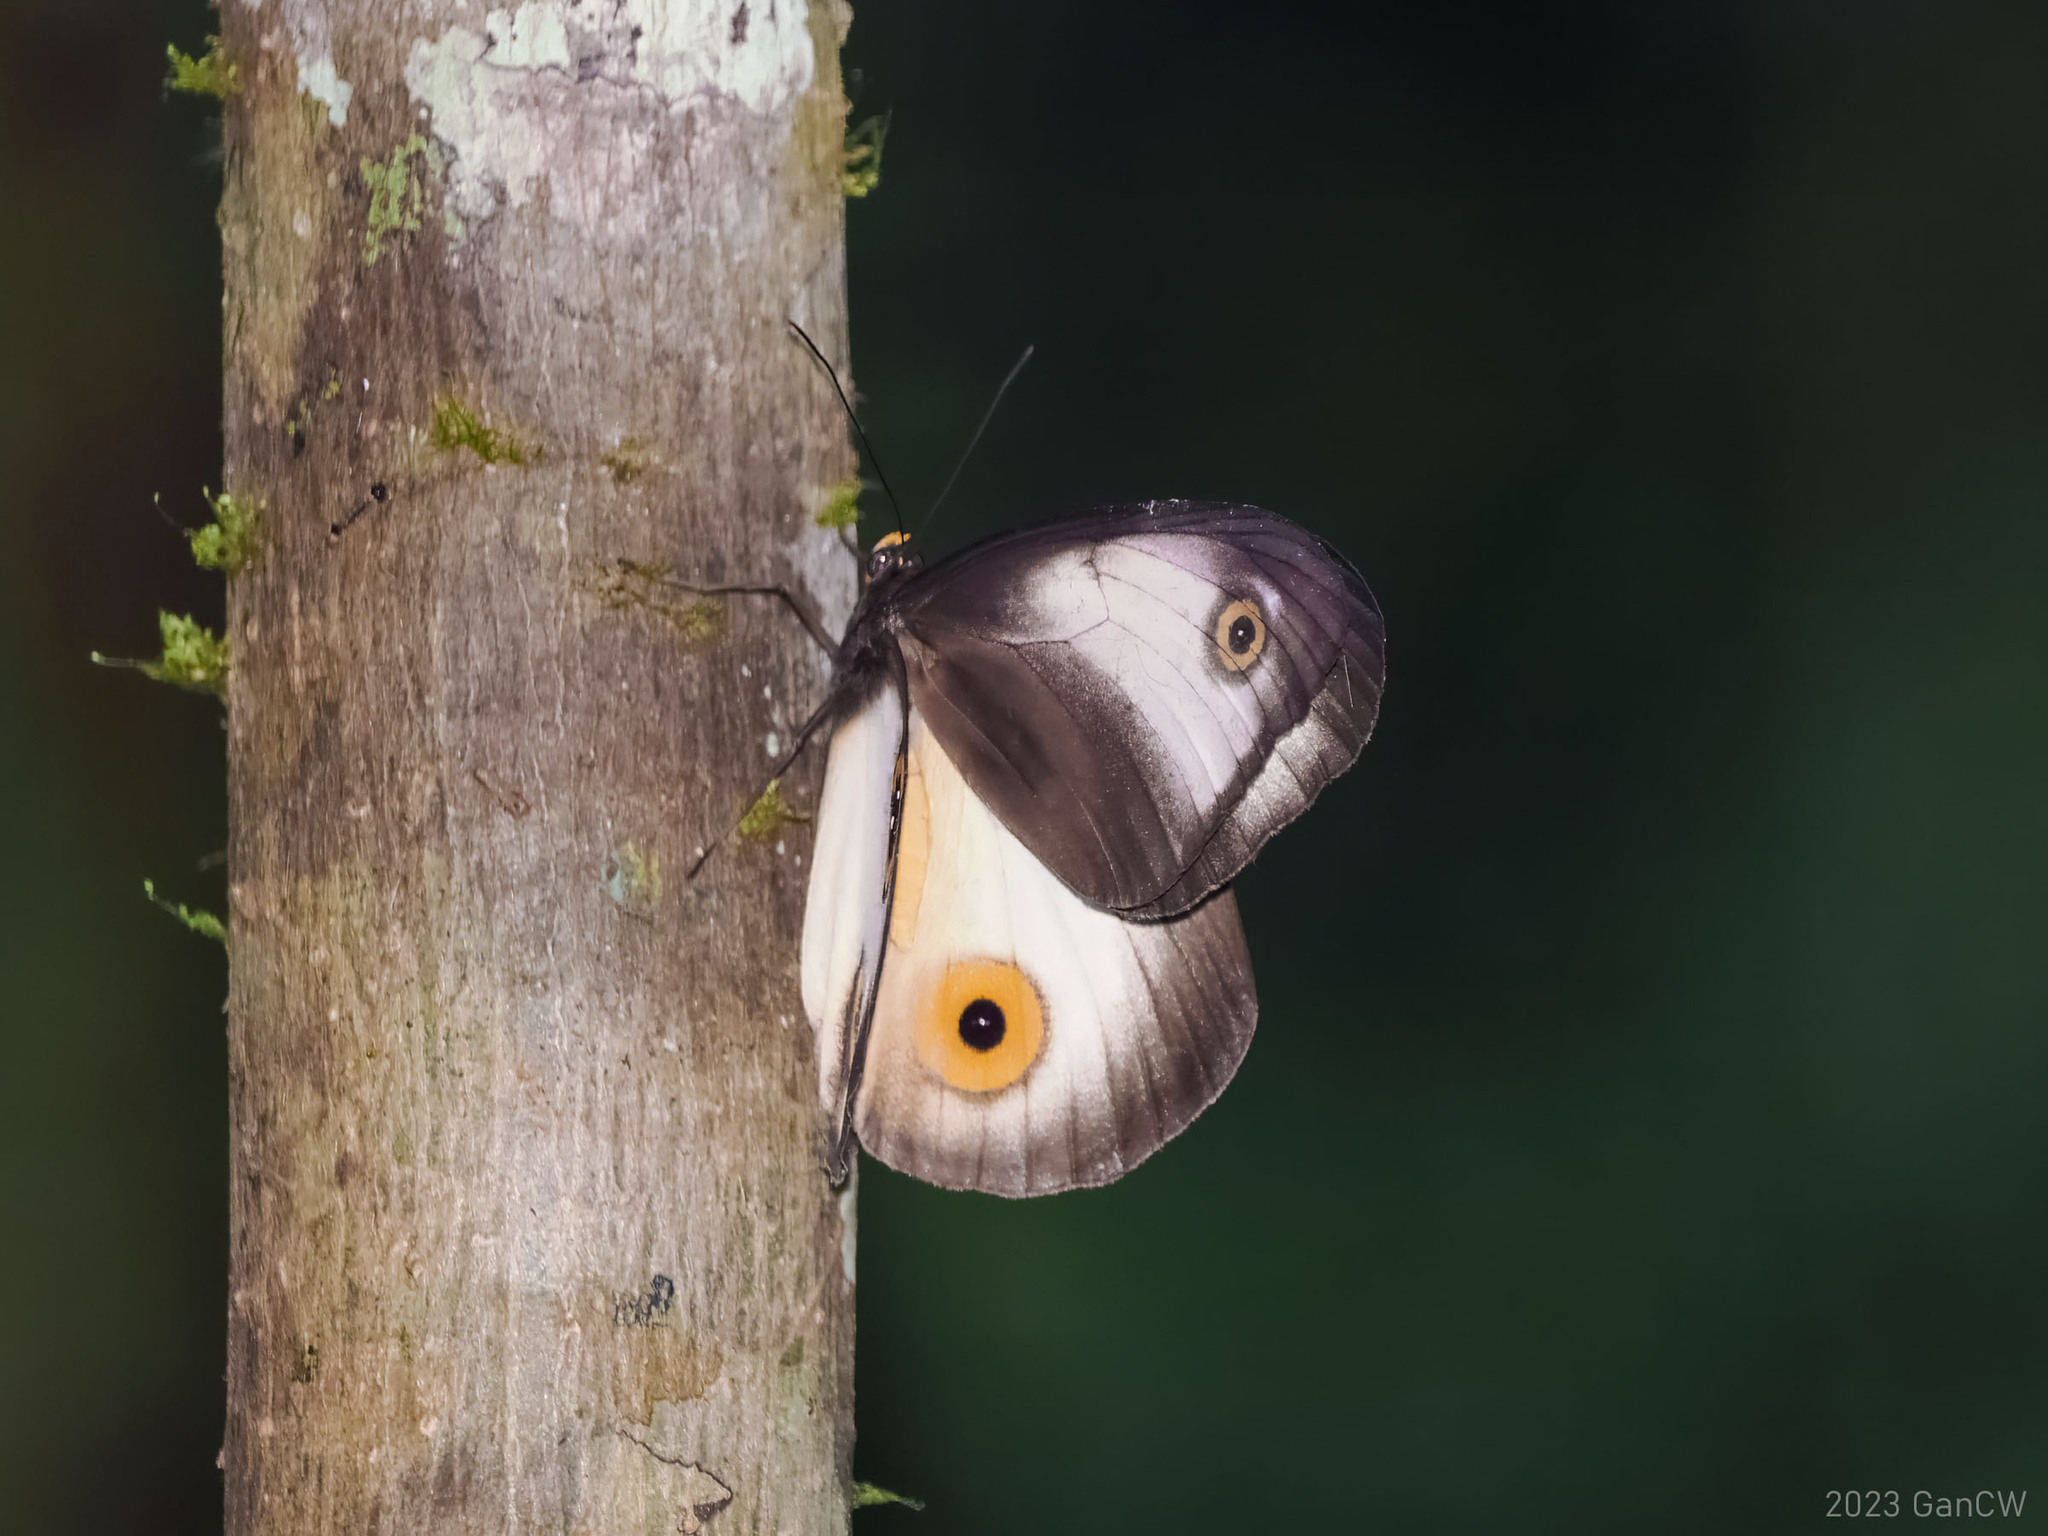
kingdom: Animalia
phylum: Arthropoda
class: Insecta
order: Lepidoptera
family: Nymphalidae
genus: Hyantis
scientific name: Hyantis hodeva
